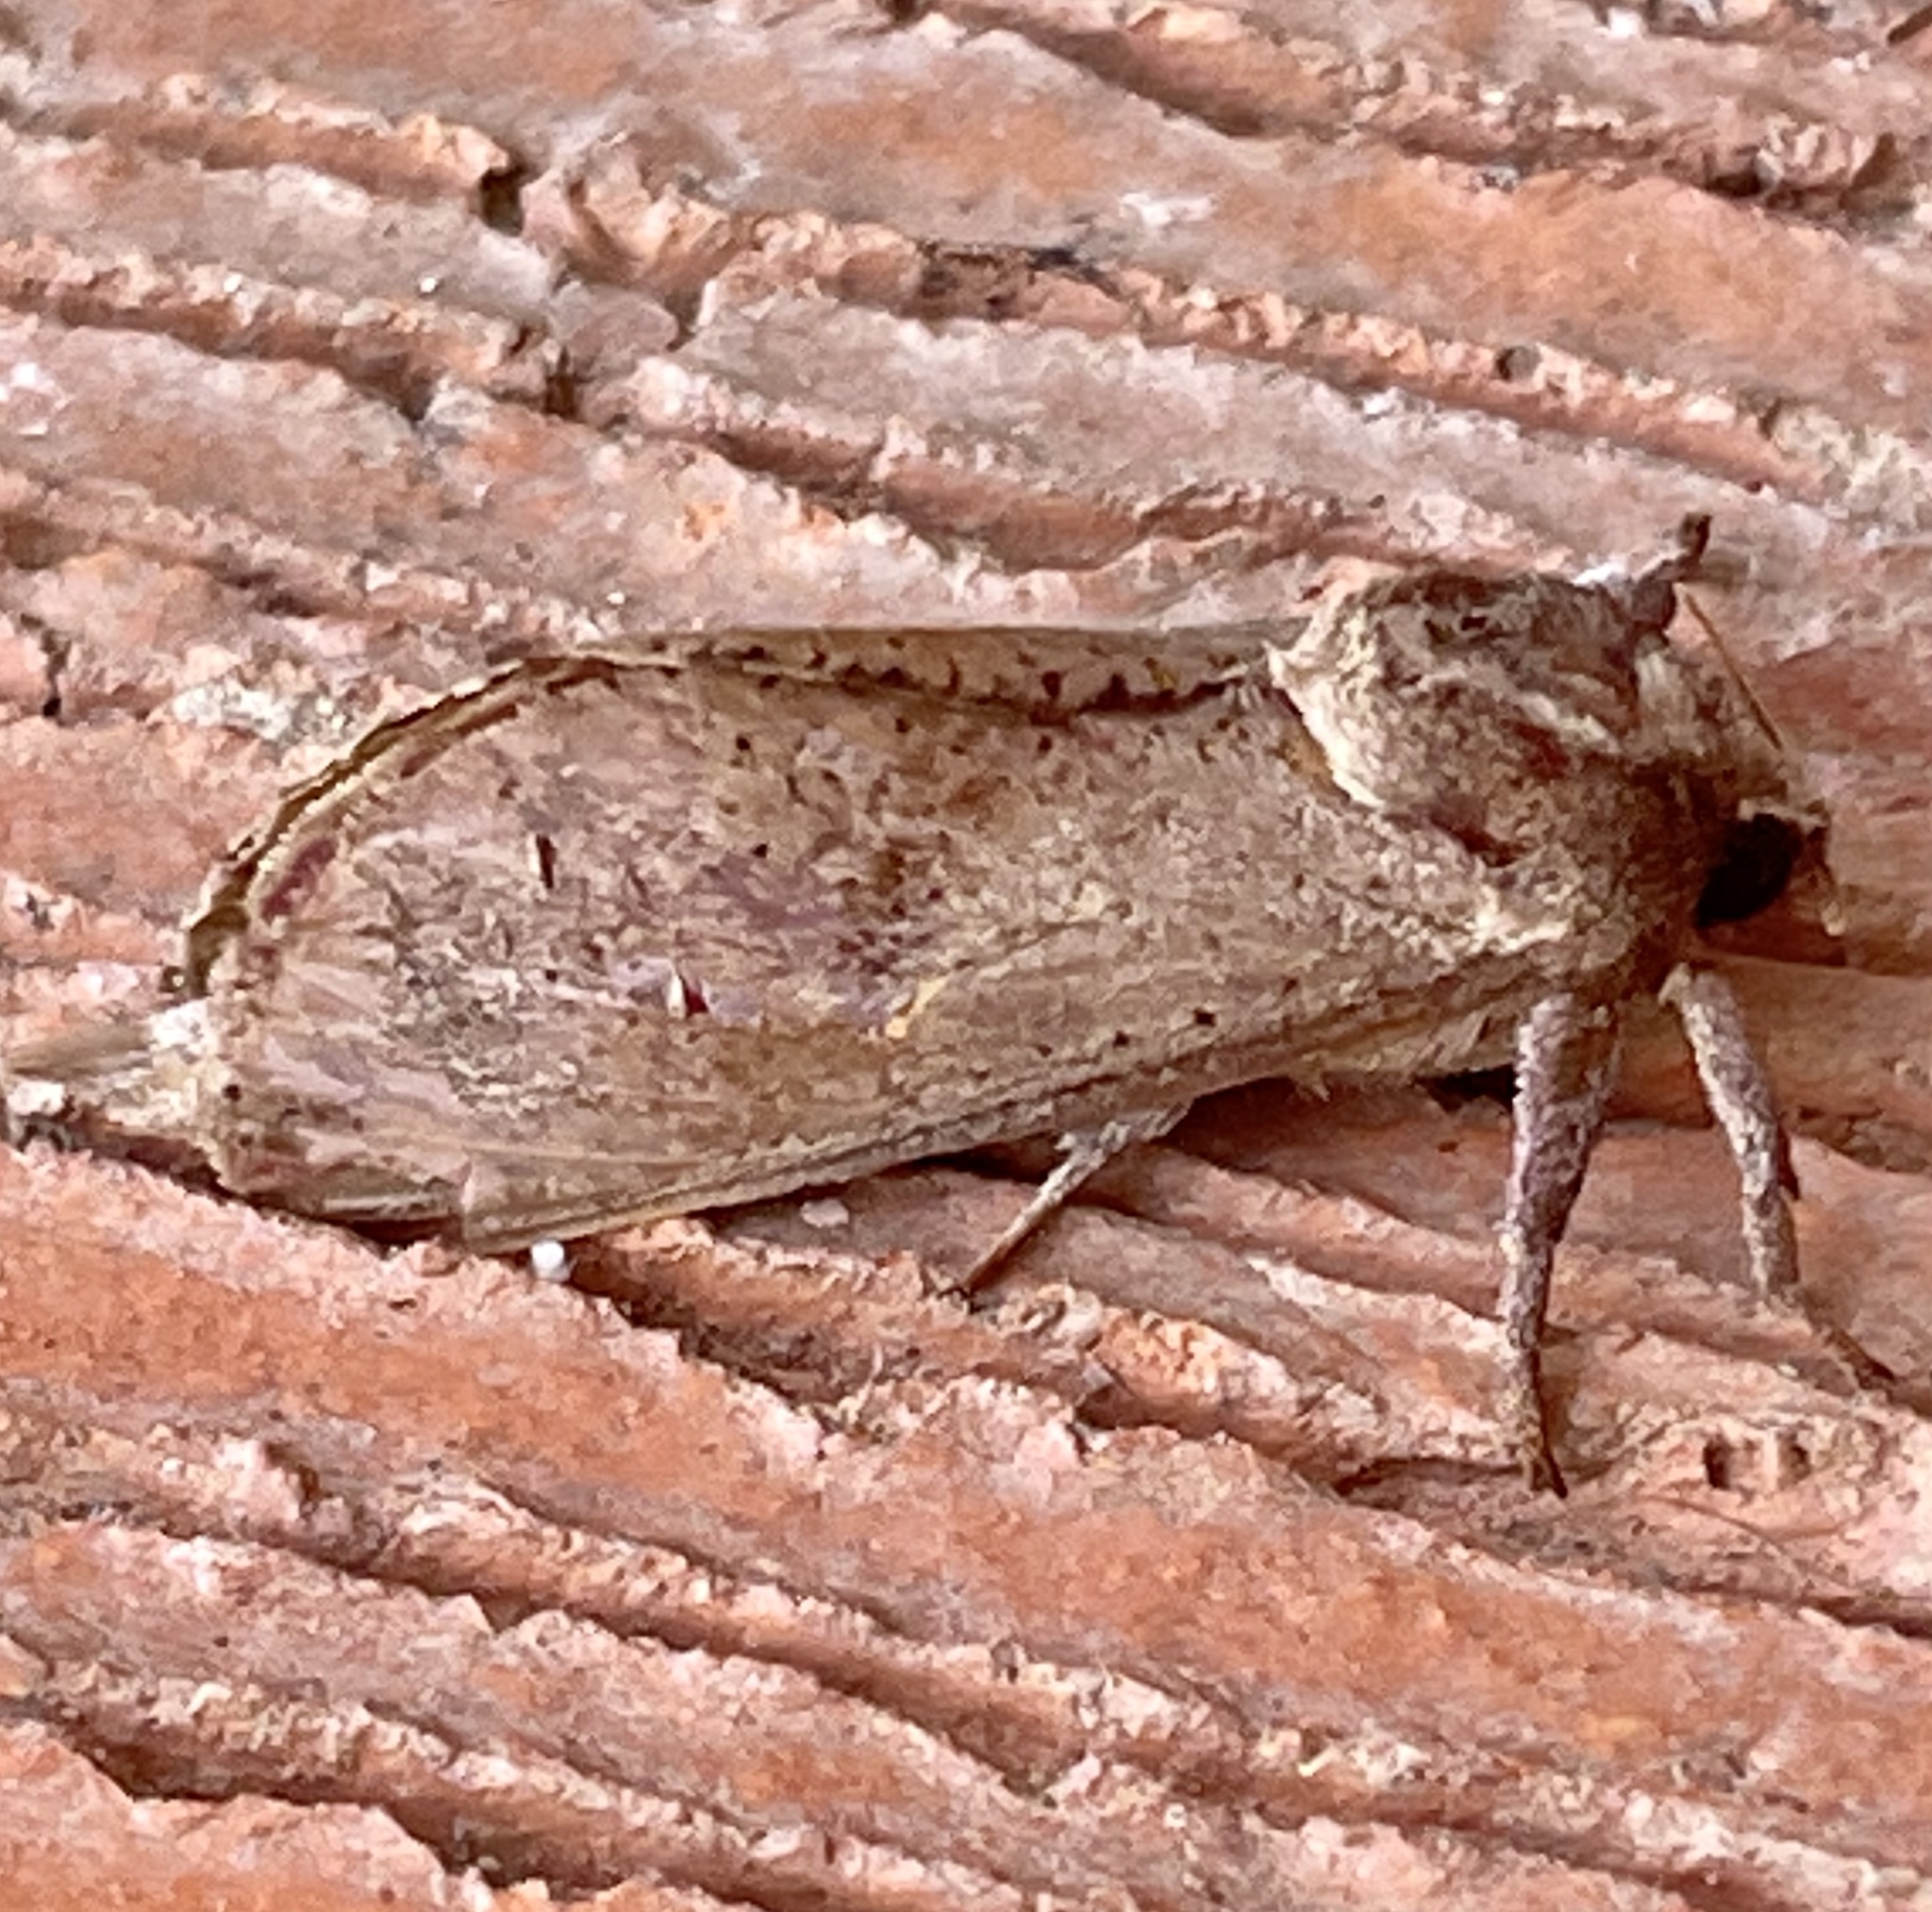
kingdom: Animalia
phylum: Arthropoda
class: Insecta
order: Lepidoptera
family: Hepialidae
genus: Elhamma
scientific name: Elhamma australasiae
